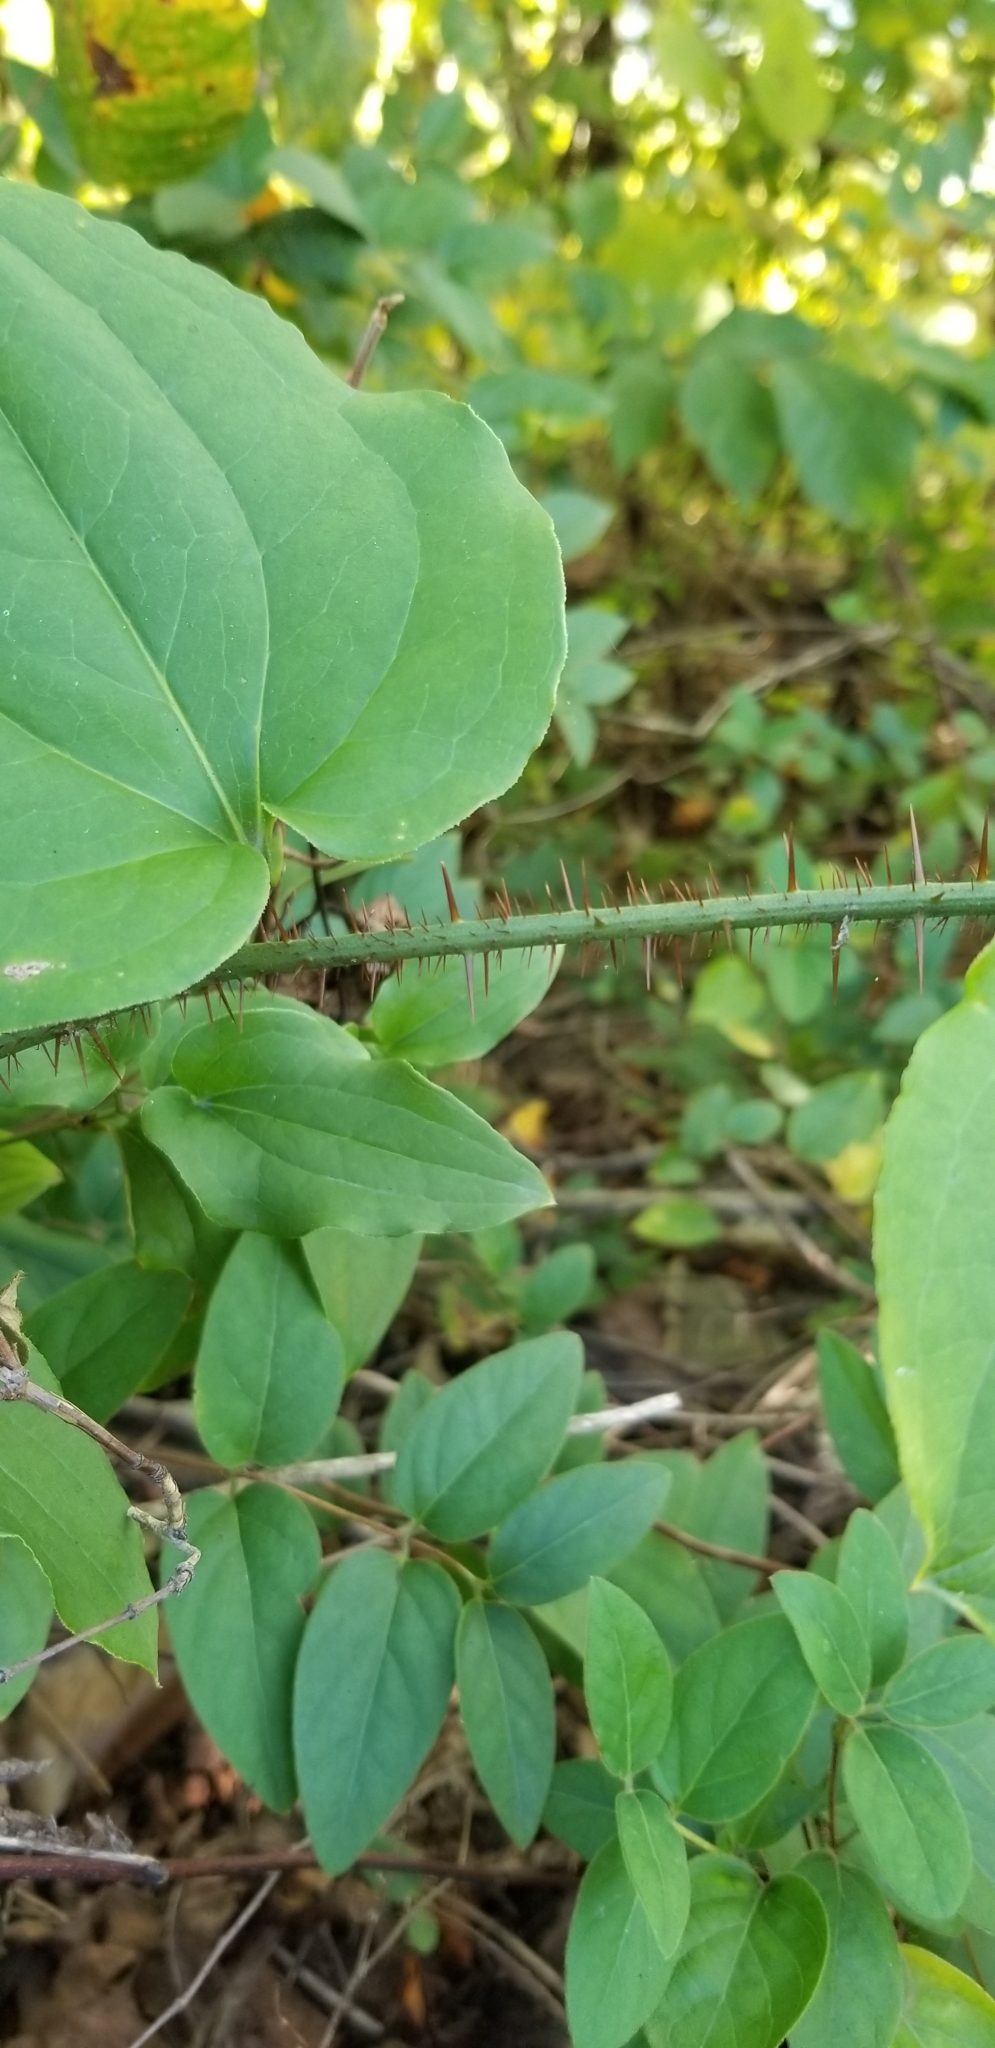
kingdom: Plantae
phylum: Tracheophyta
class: Liliopsida
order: Liliales
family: Smilacaceae
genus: Smilax
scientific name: Smilax tamnoides
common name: Hellfetter
